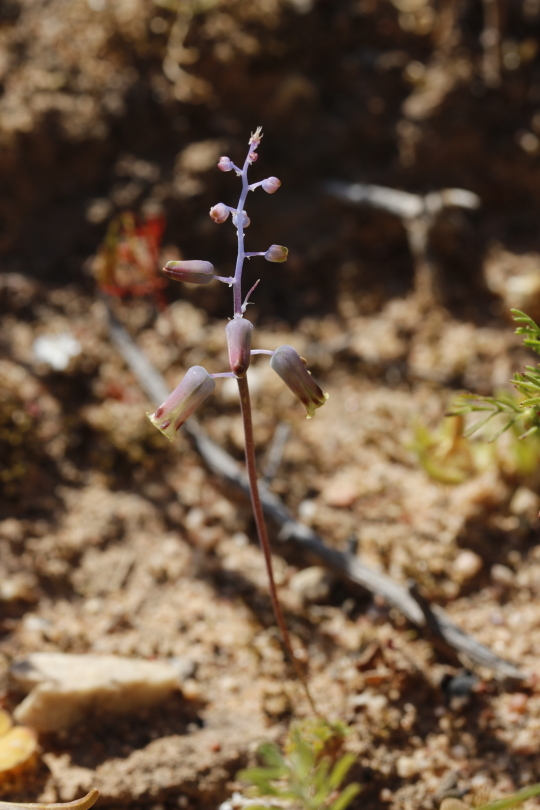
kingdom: Plantae
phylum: Tracheophyta
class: Liliopsida
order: Asparagales
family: Asparagaceae
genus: Lachenalia
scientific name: Lachenalia hirta
